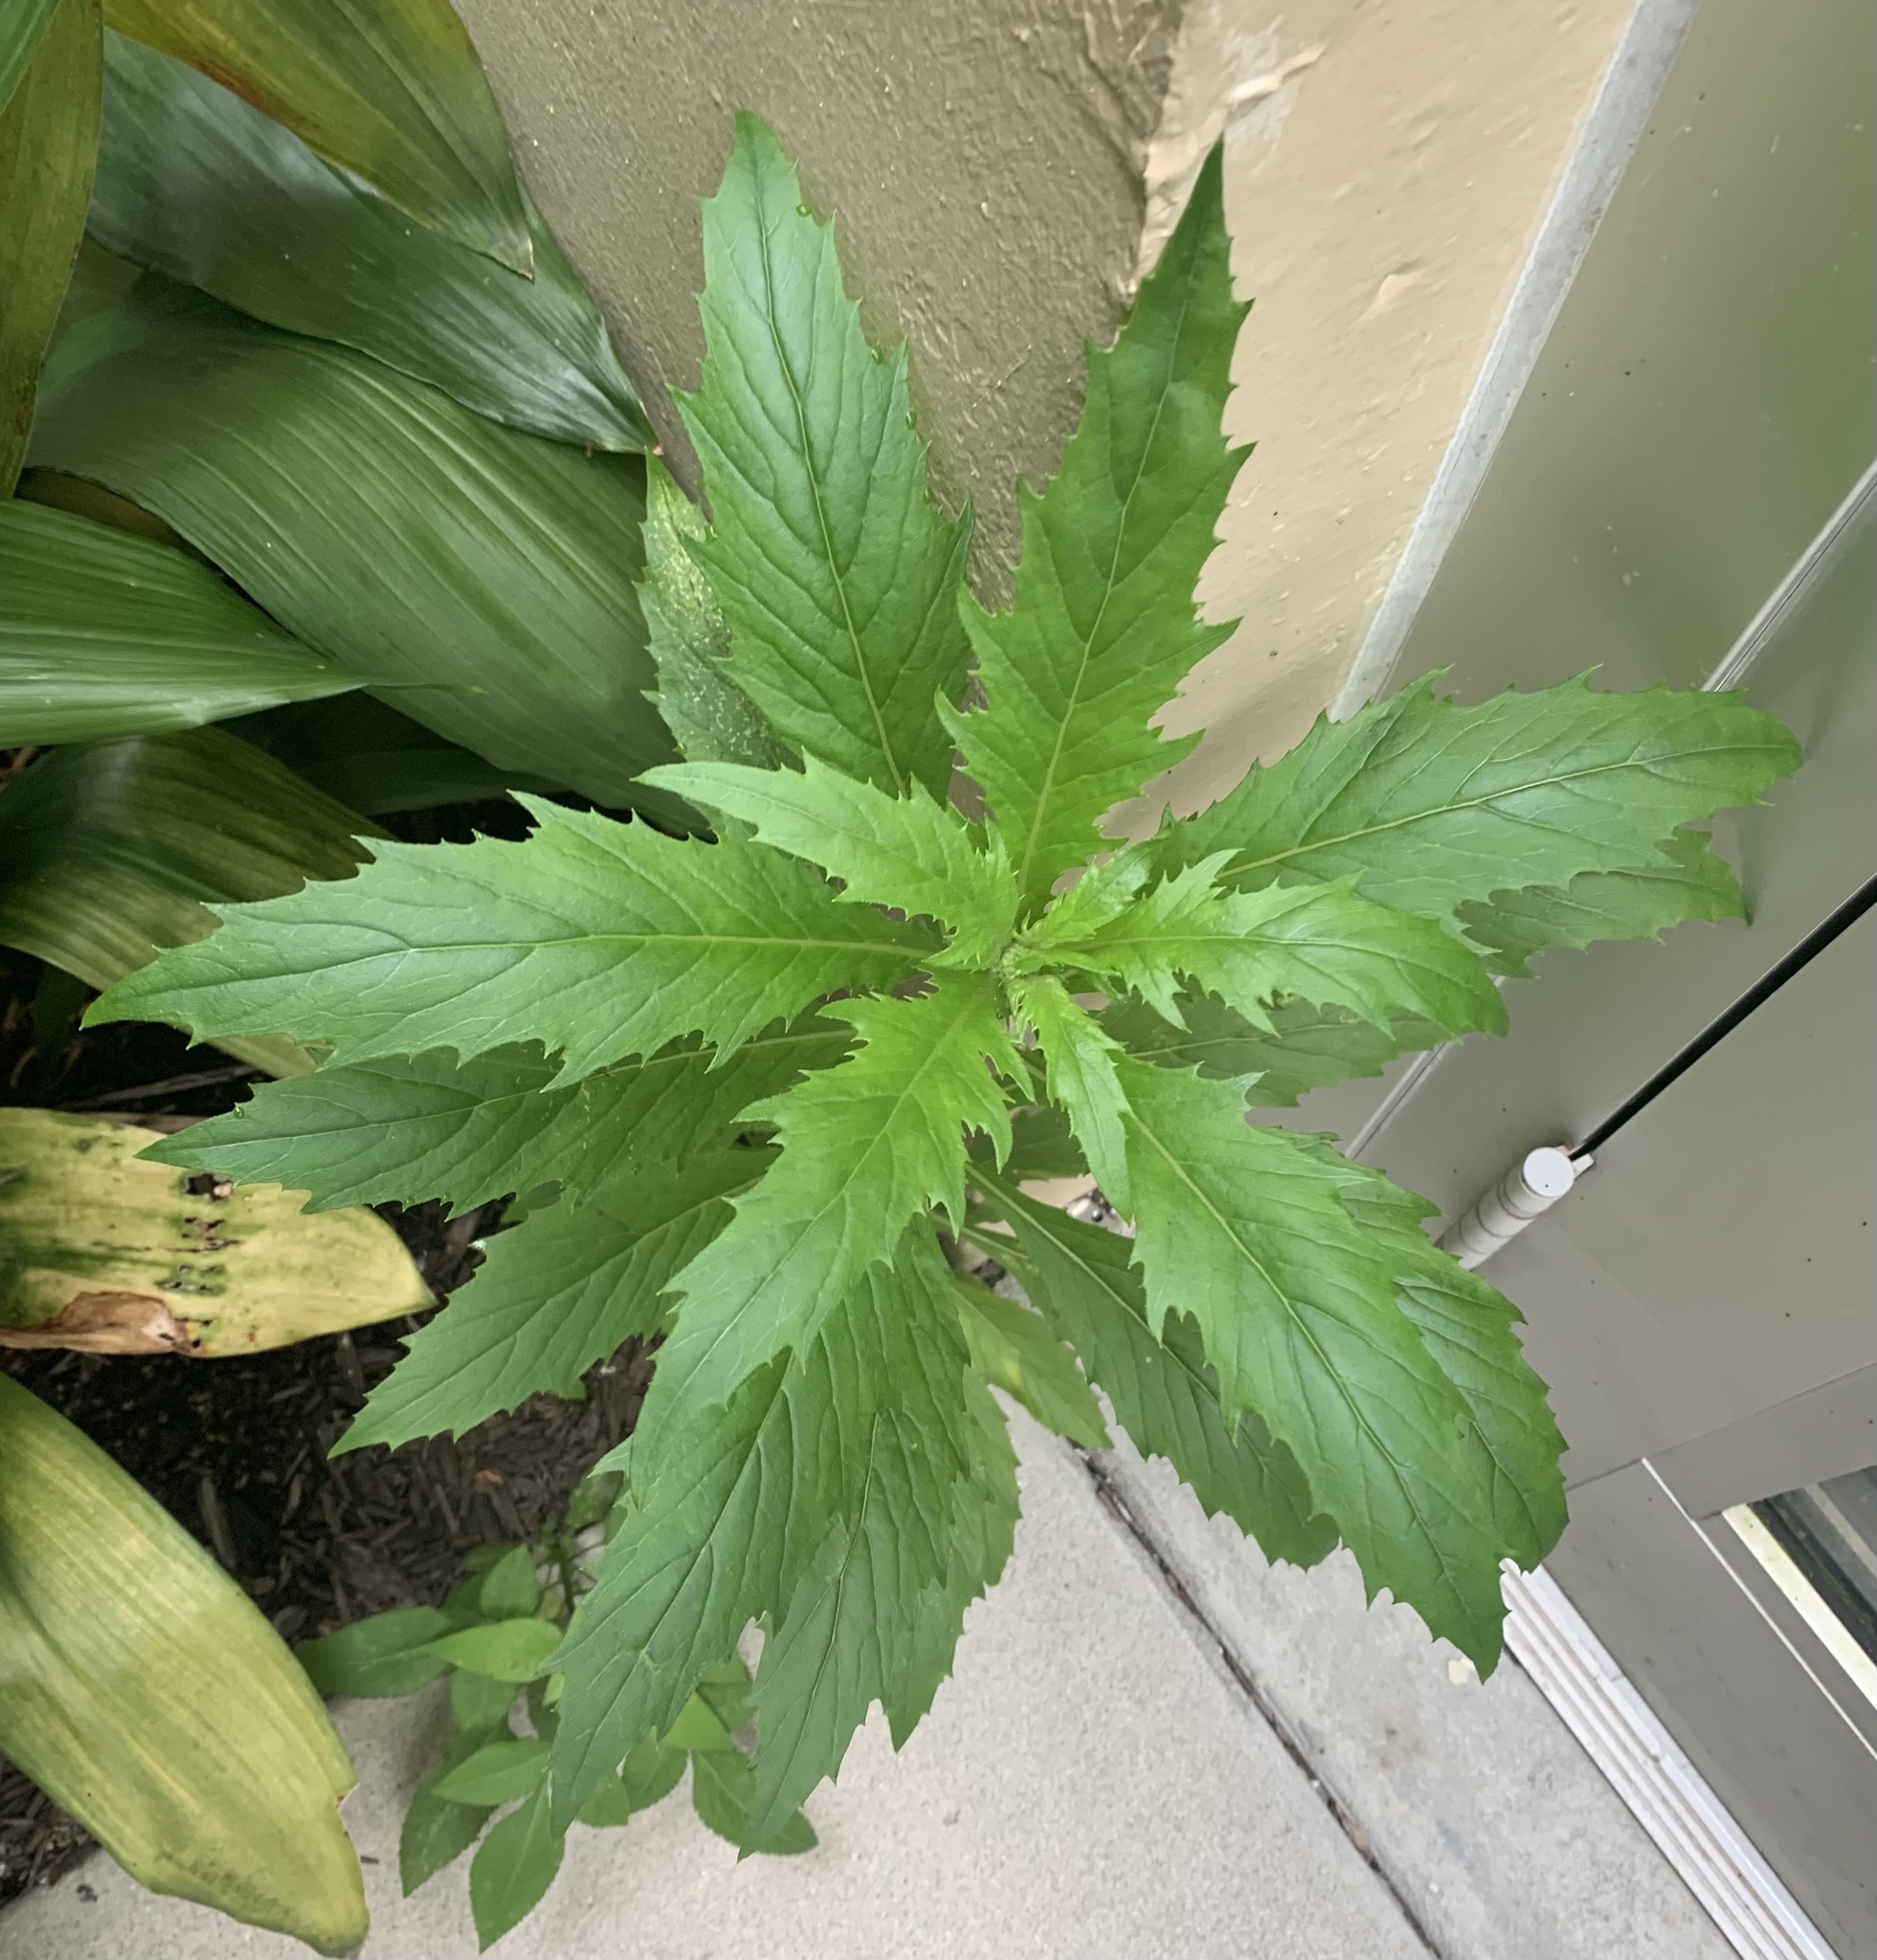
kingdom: Plantae
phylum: Tracheophyta
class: Magnoliopsida
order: Asterales
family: Asteraceae
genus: Erechtites
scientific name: Erechtites hieraciifolius
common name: American burnweed
